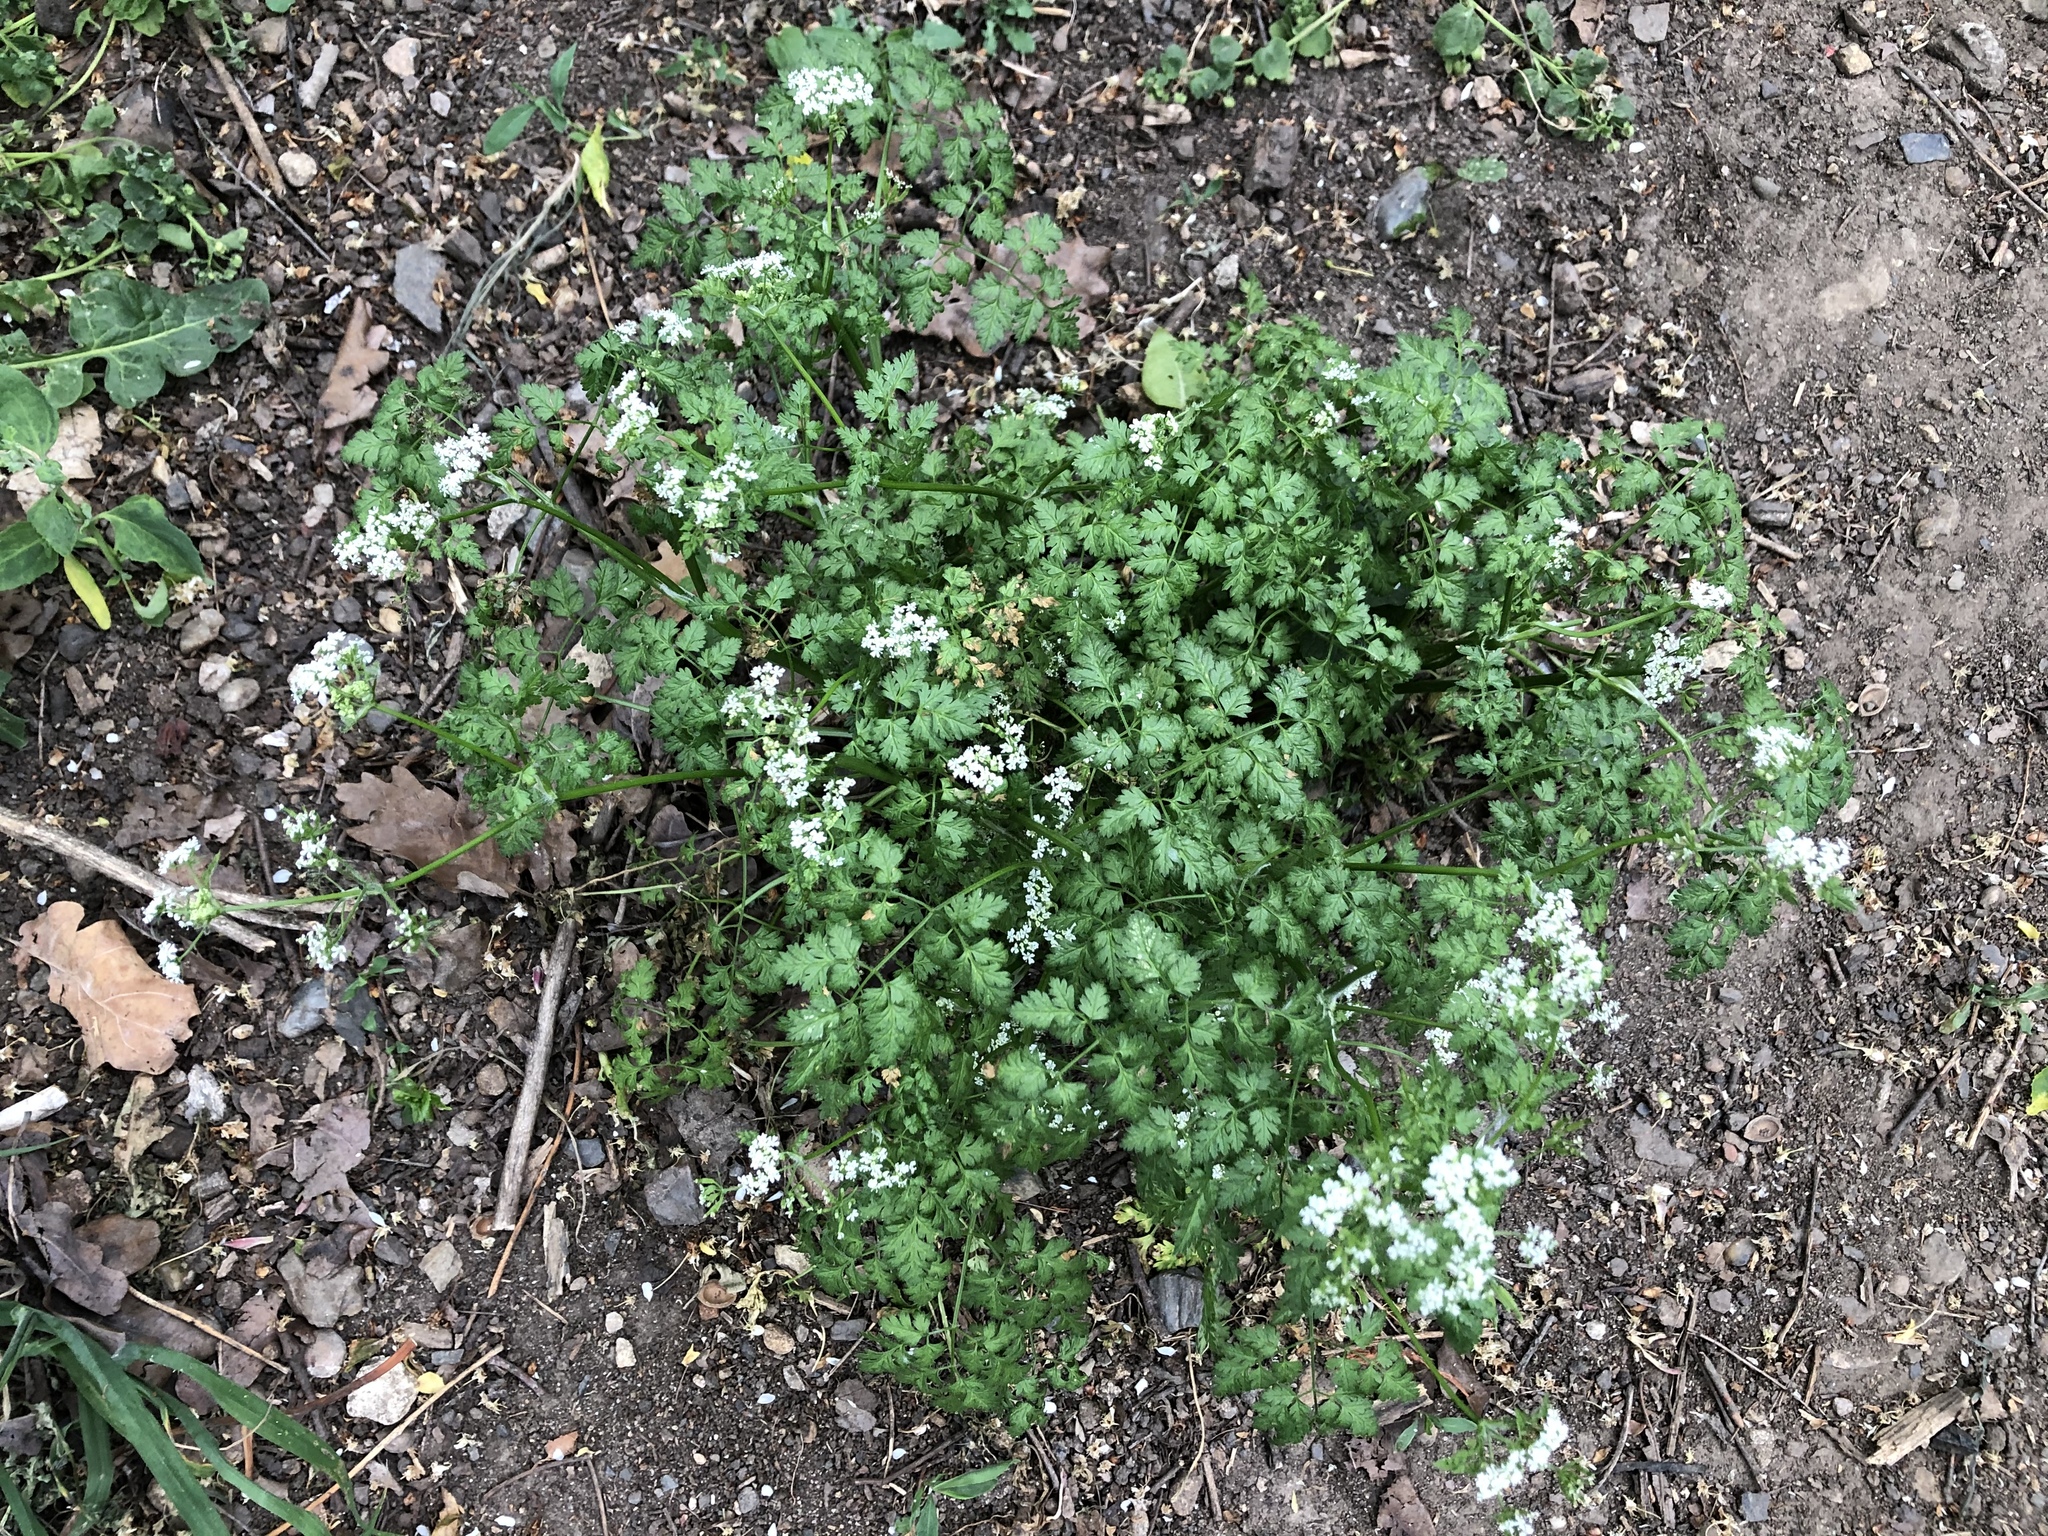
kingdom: Plantae
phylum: Tracheophyta
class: Magnoliopsida
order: Apiales
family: Apiaceae
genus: Anthriscus
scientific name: Anthriscus cerefolium
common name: Garden chervil
